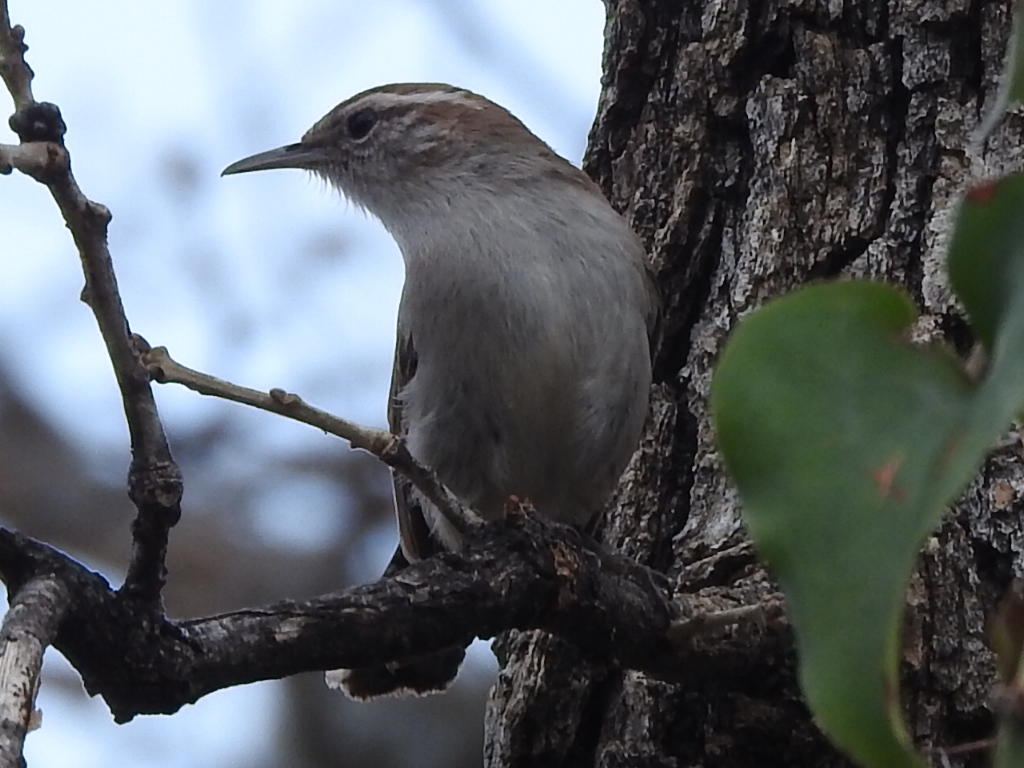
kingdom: Animalia
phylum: Chordata
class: Aves
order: Passeriformes
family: Troglodytidae
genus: Thryomanes
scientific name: Thryomanes bewickii
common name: Bewick's wren
